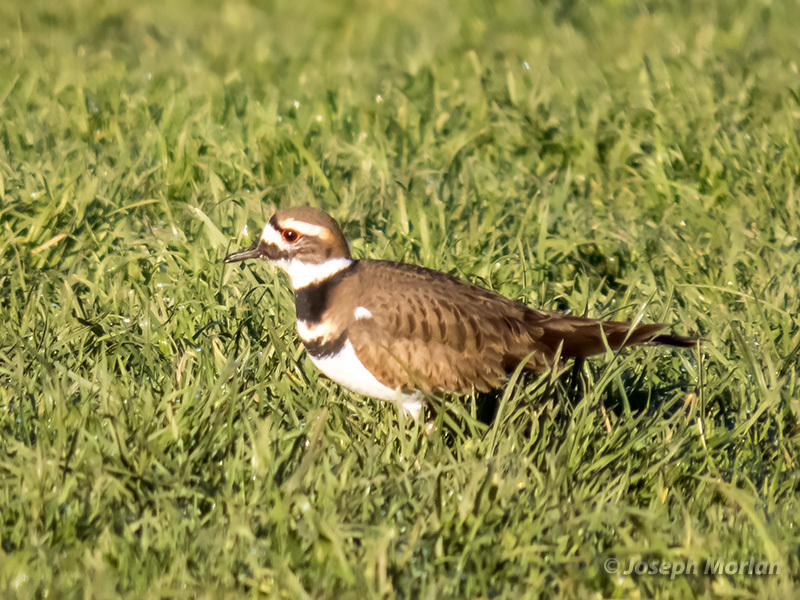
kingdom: Animalia
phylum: Chordata
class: Aves
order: Charadriiformes
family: Charadriidae
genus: Charadrius
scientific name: Charadrius vociferus
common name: Killdeer
